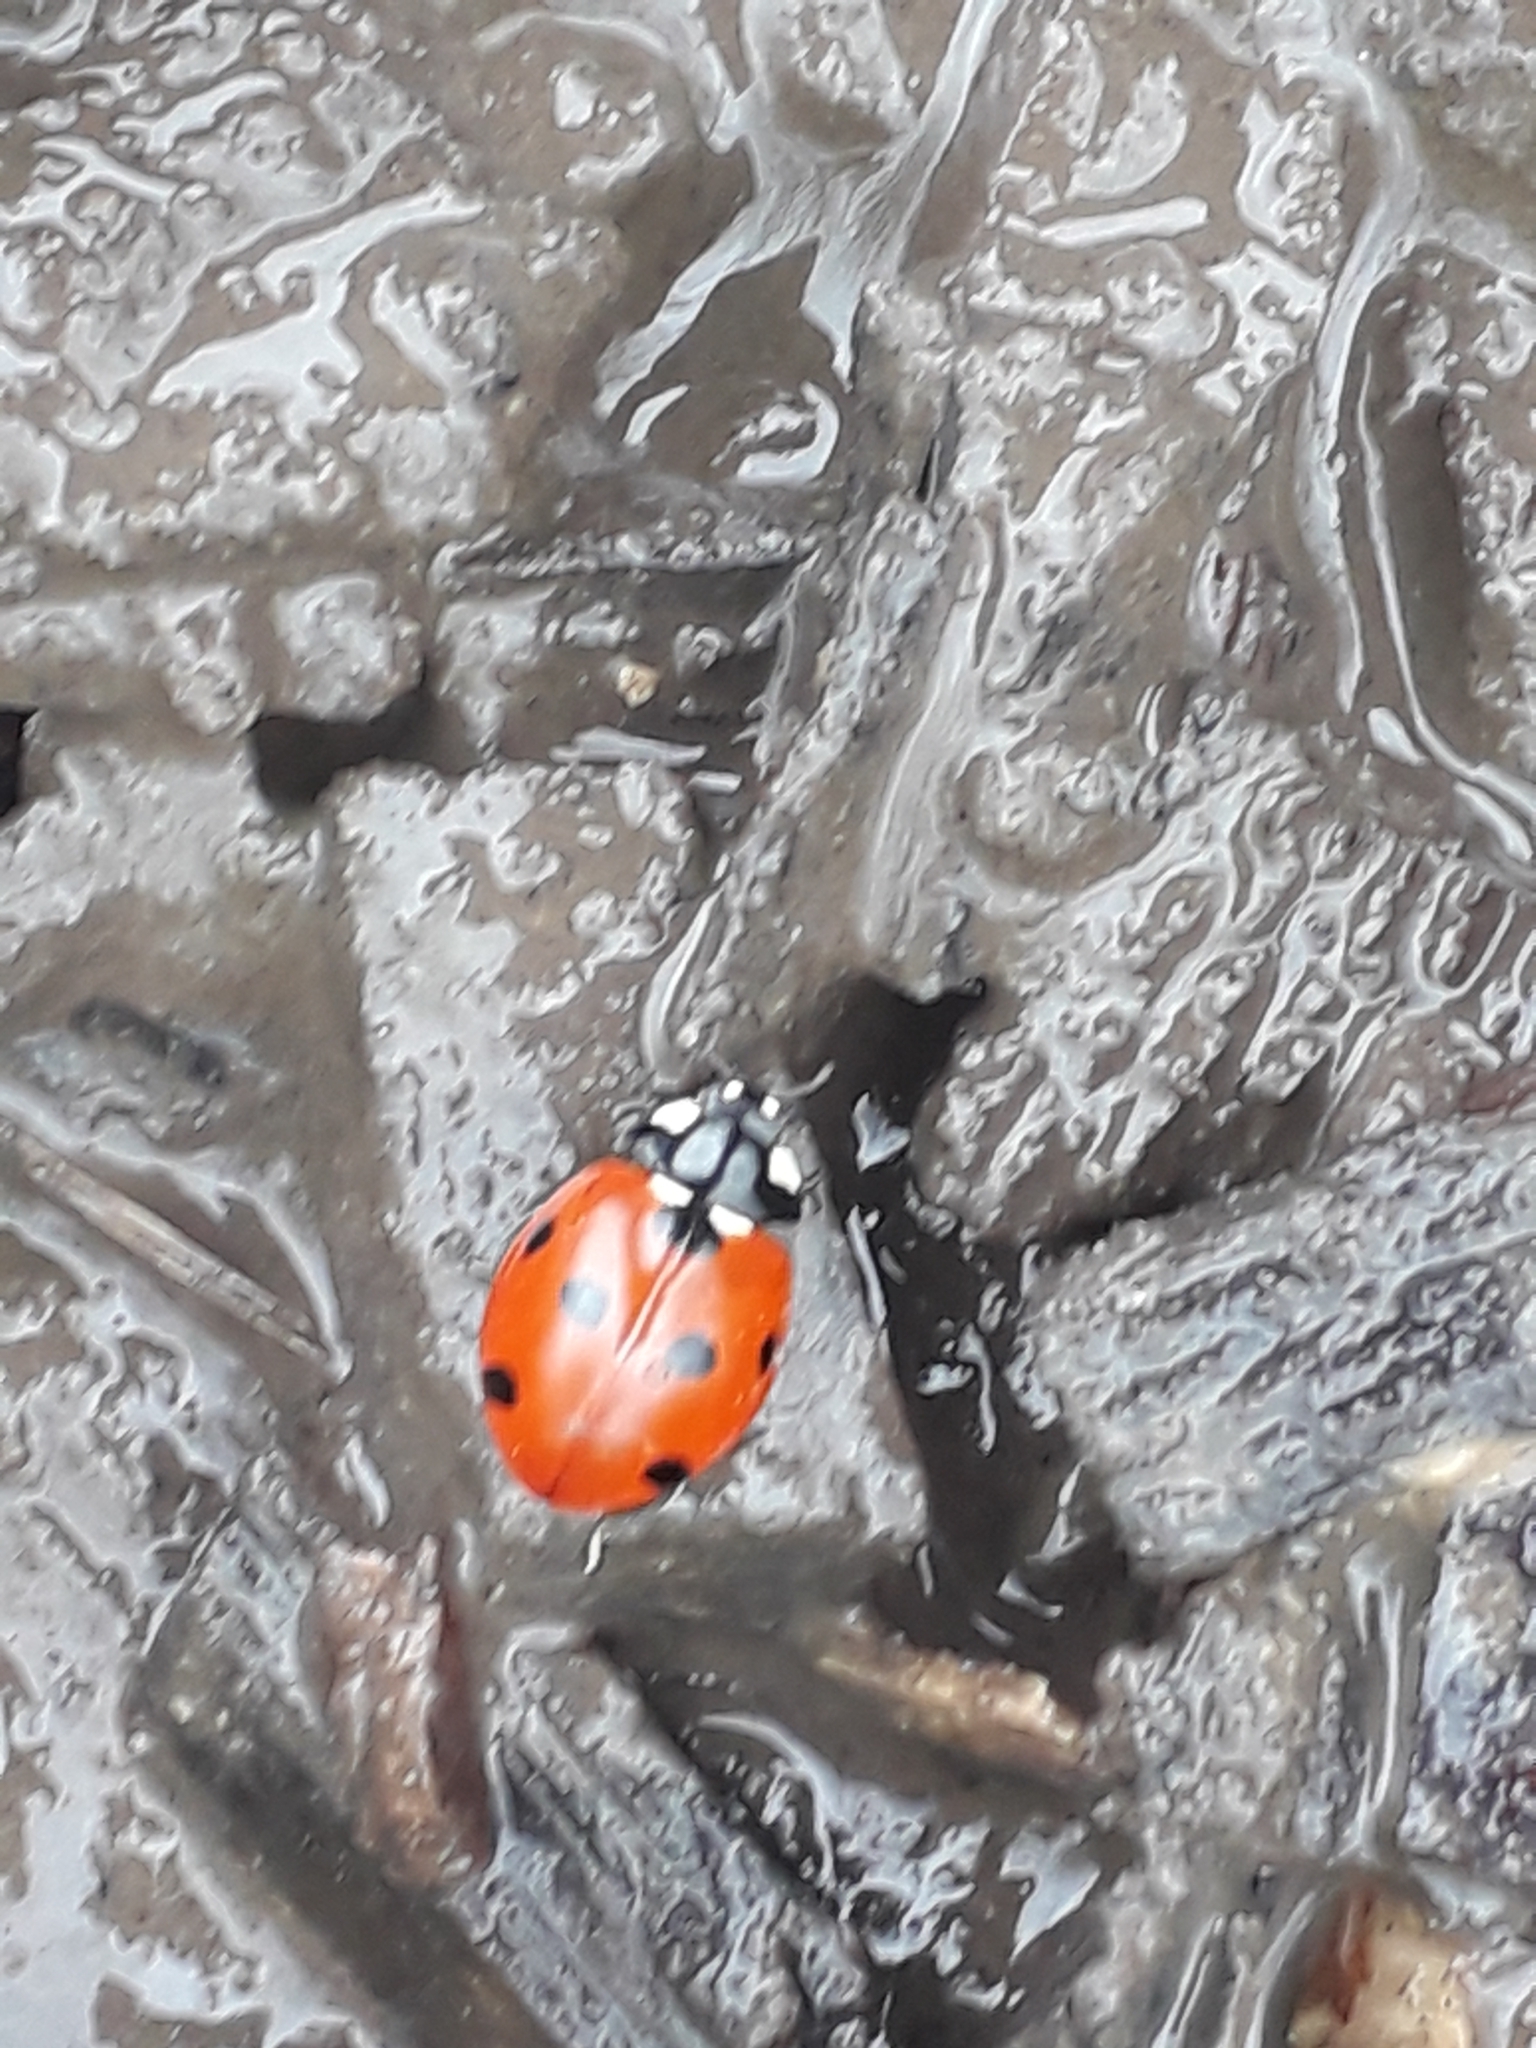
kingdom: Animalia
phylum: Arthropoda
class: Insecta
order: Coleoptera
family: Coccinellidae
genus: Coccinella
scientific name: Coccinella septempunctata
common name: Sevenspotted lady beetle
